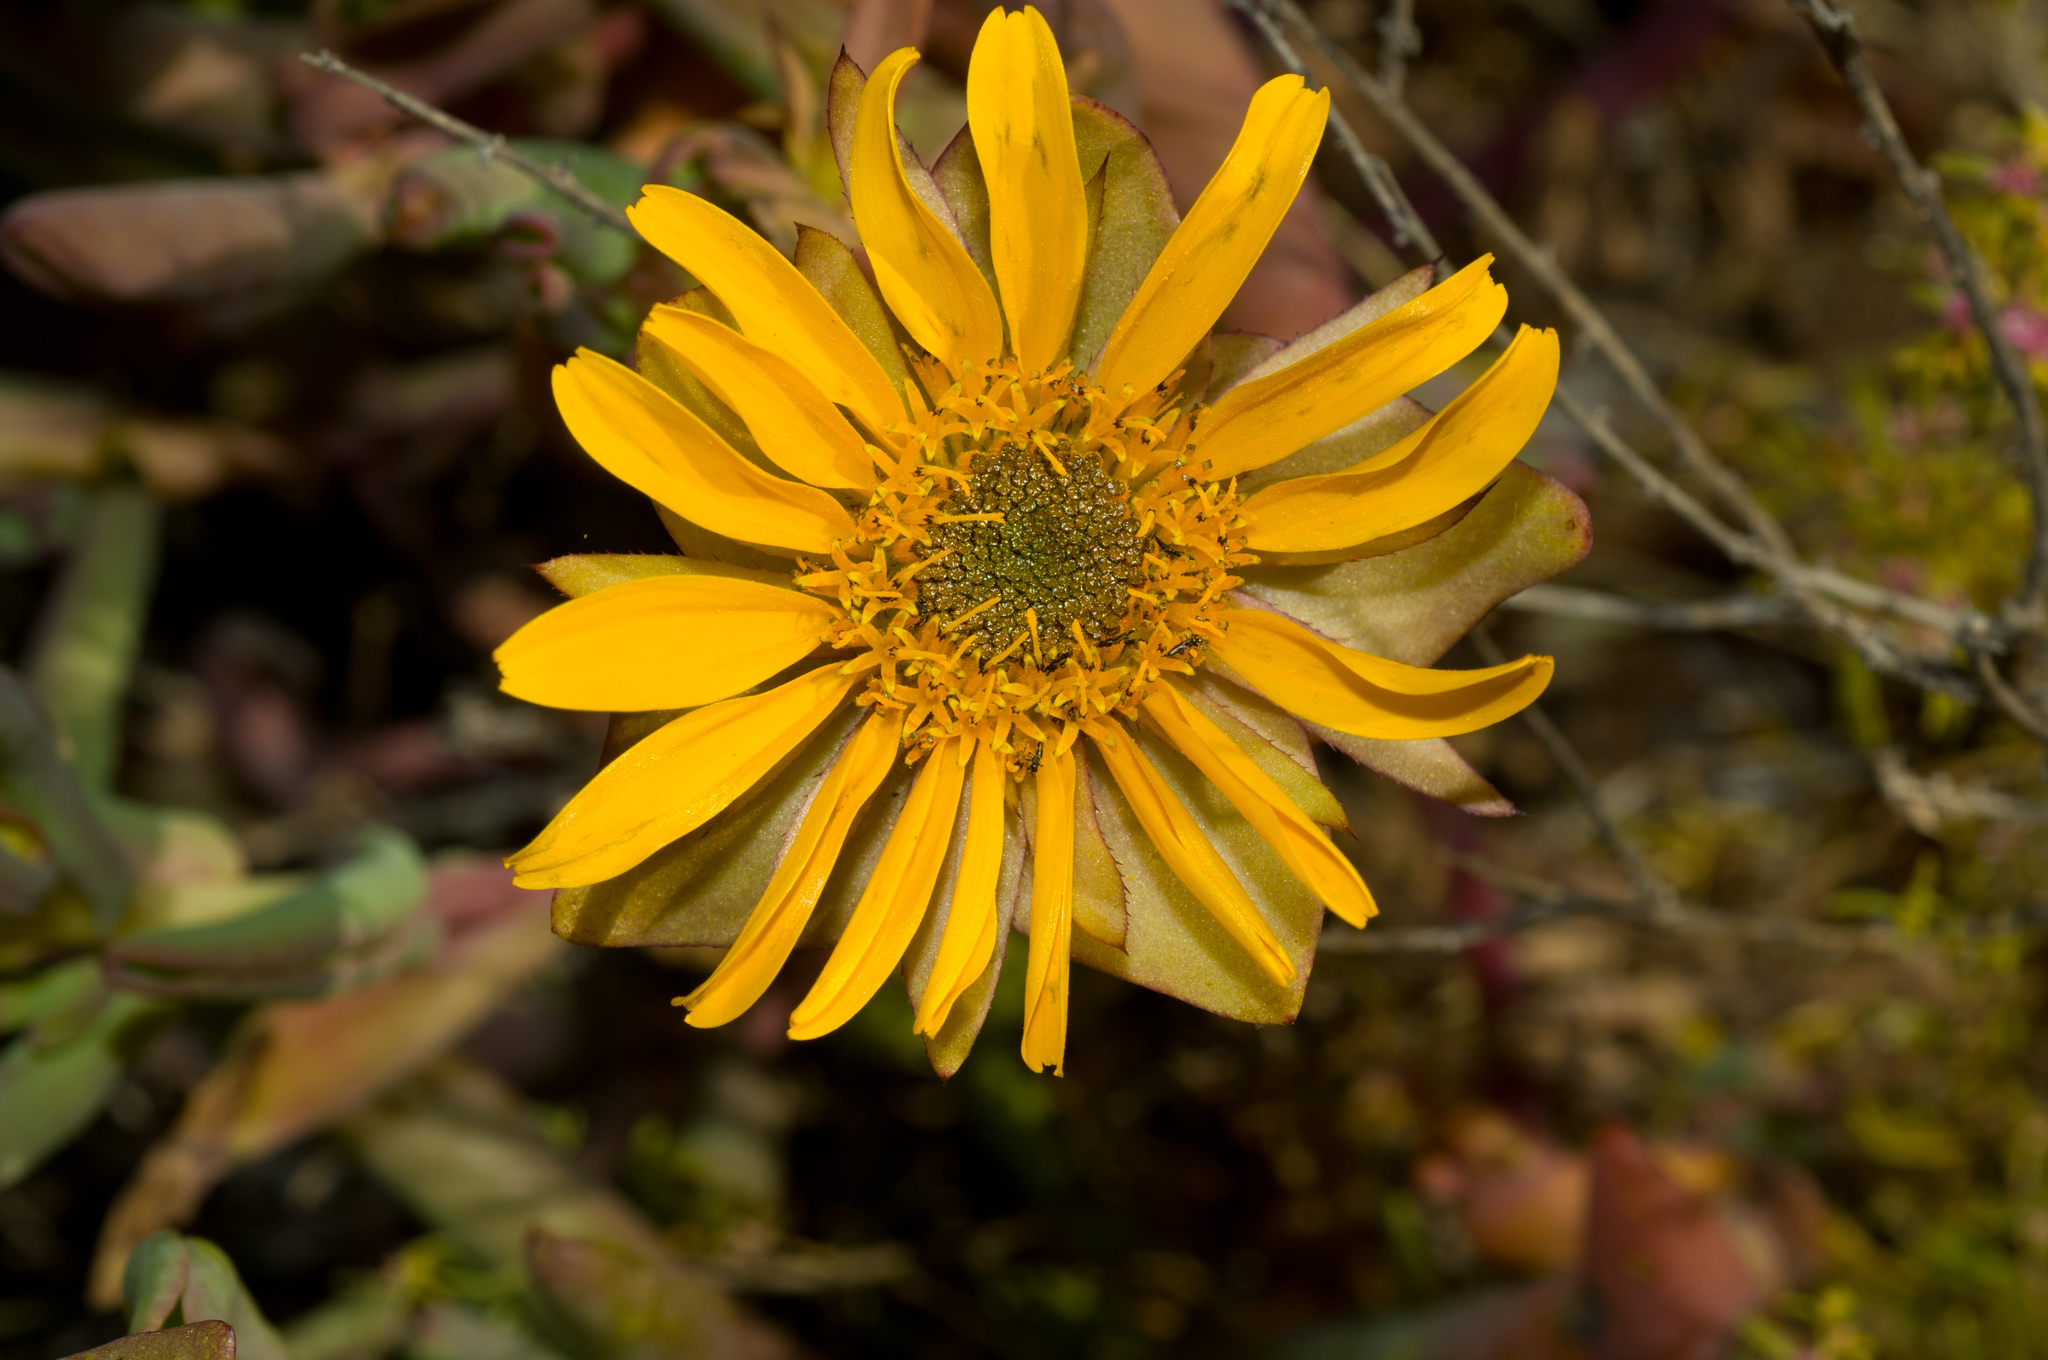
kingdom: Plantae
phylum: Tracheophyta
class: Magnoliopsida
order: Asterales
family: Asteraceae
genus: Didelta
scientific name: Didelta carnosa
